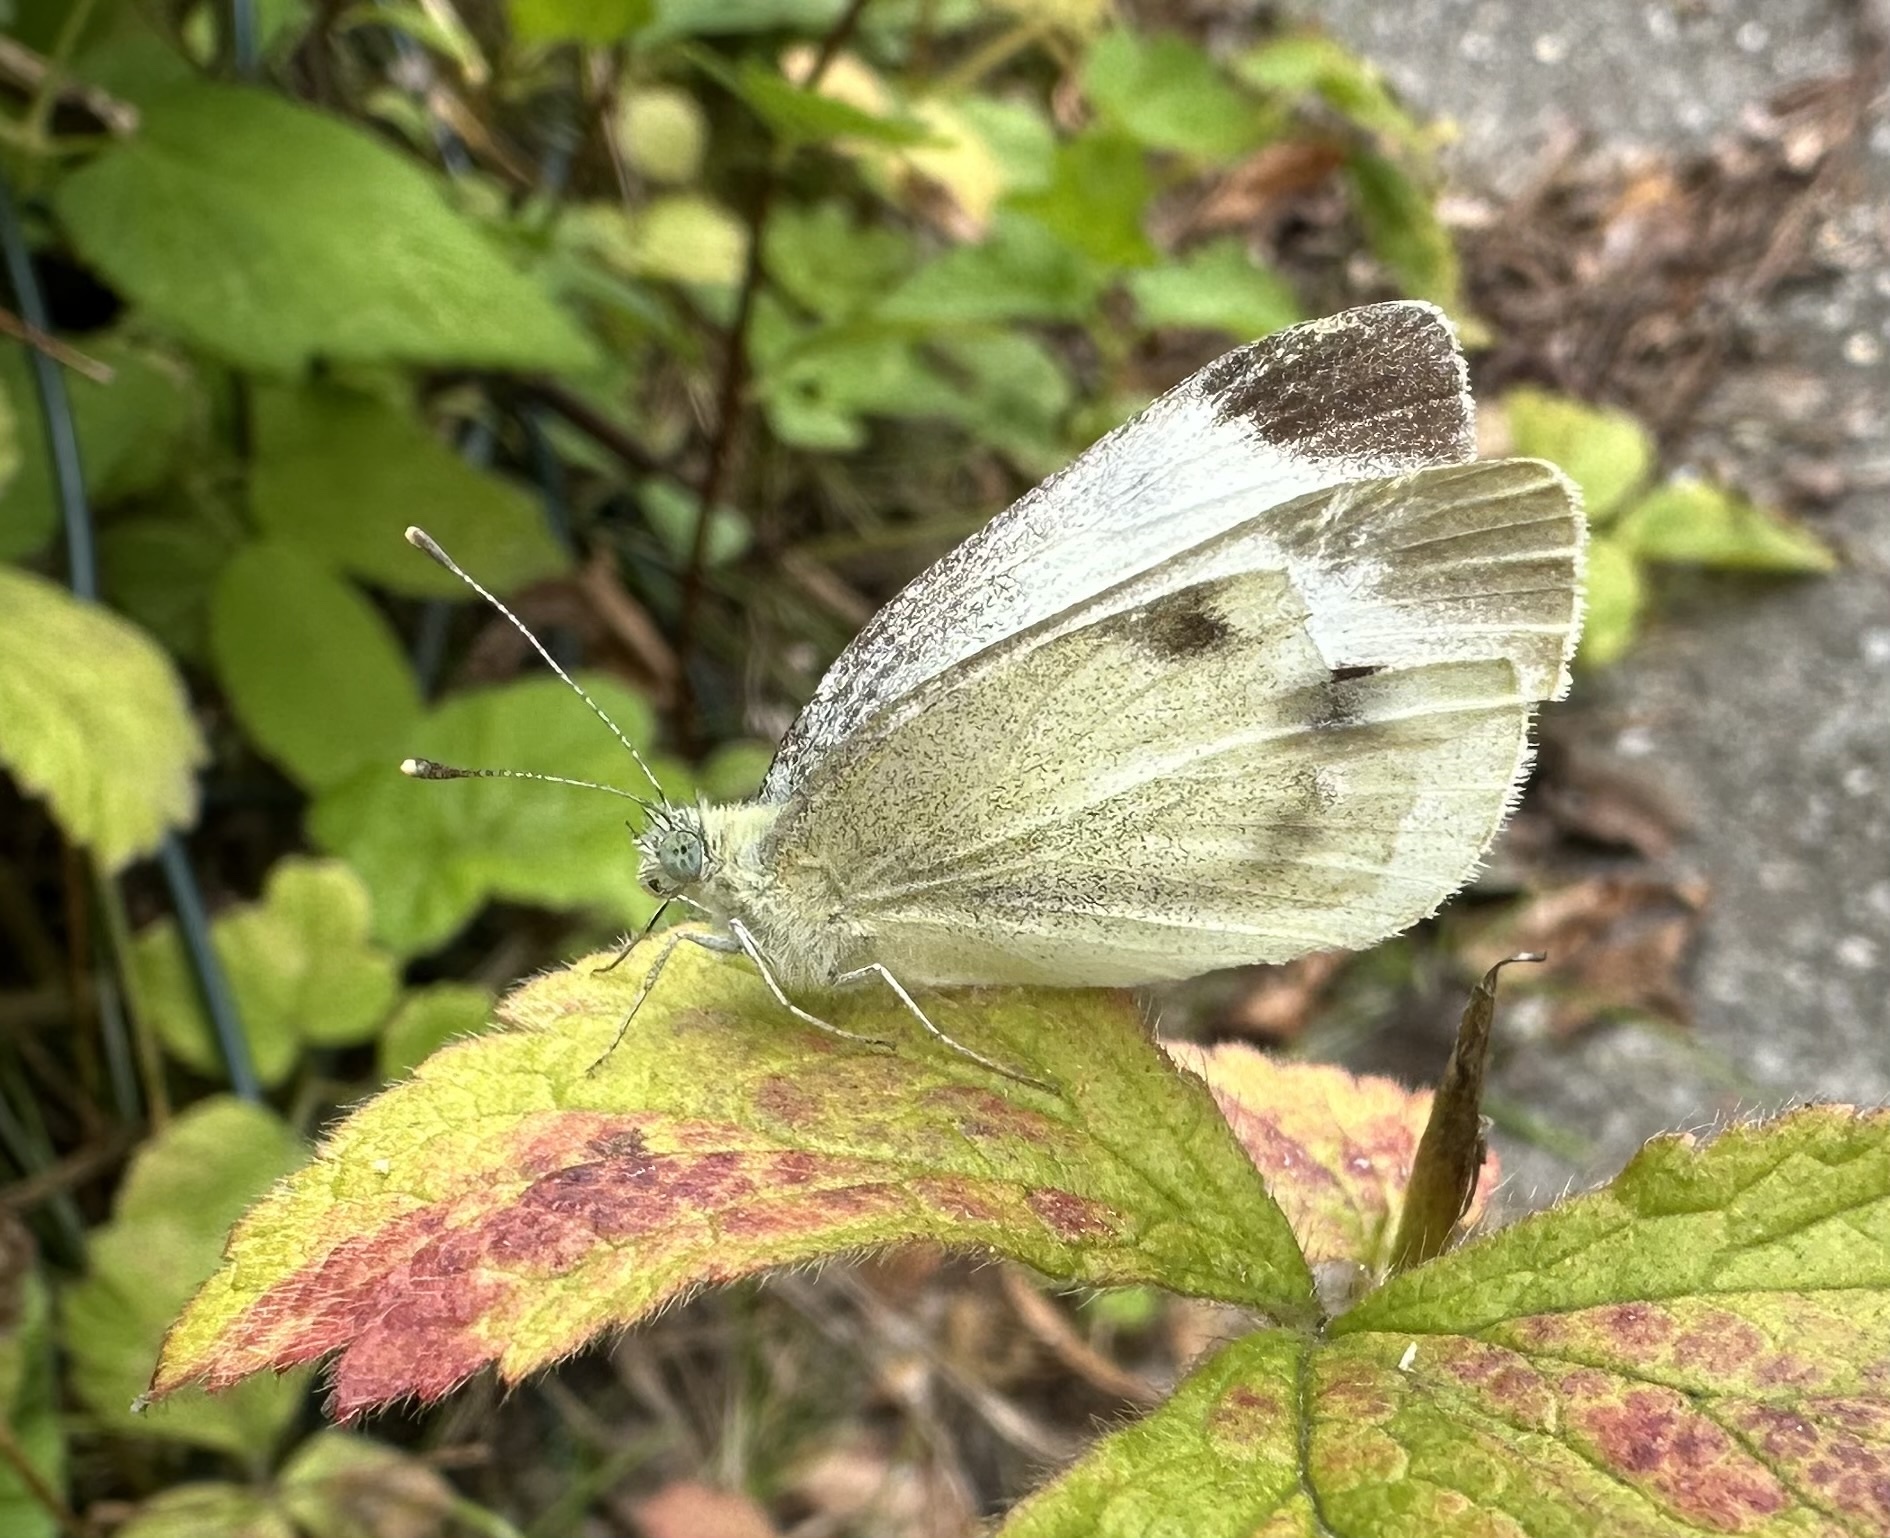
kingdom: Animalia
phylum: Arthropoda
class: Insecta
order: Lepidoptera
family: Pieridae
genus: Pieris
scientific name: Pieris mannii
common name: Southern small white
